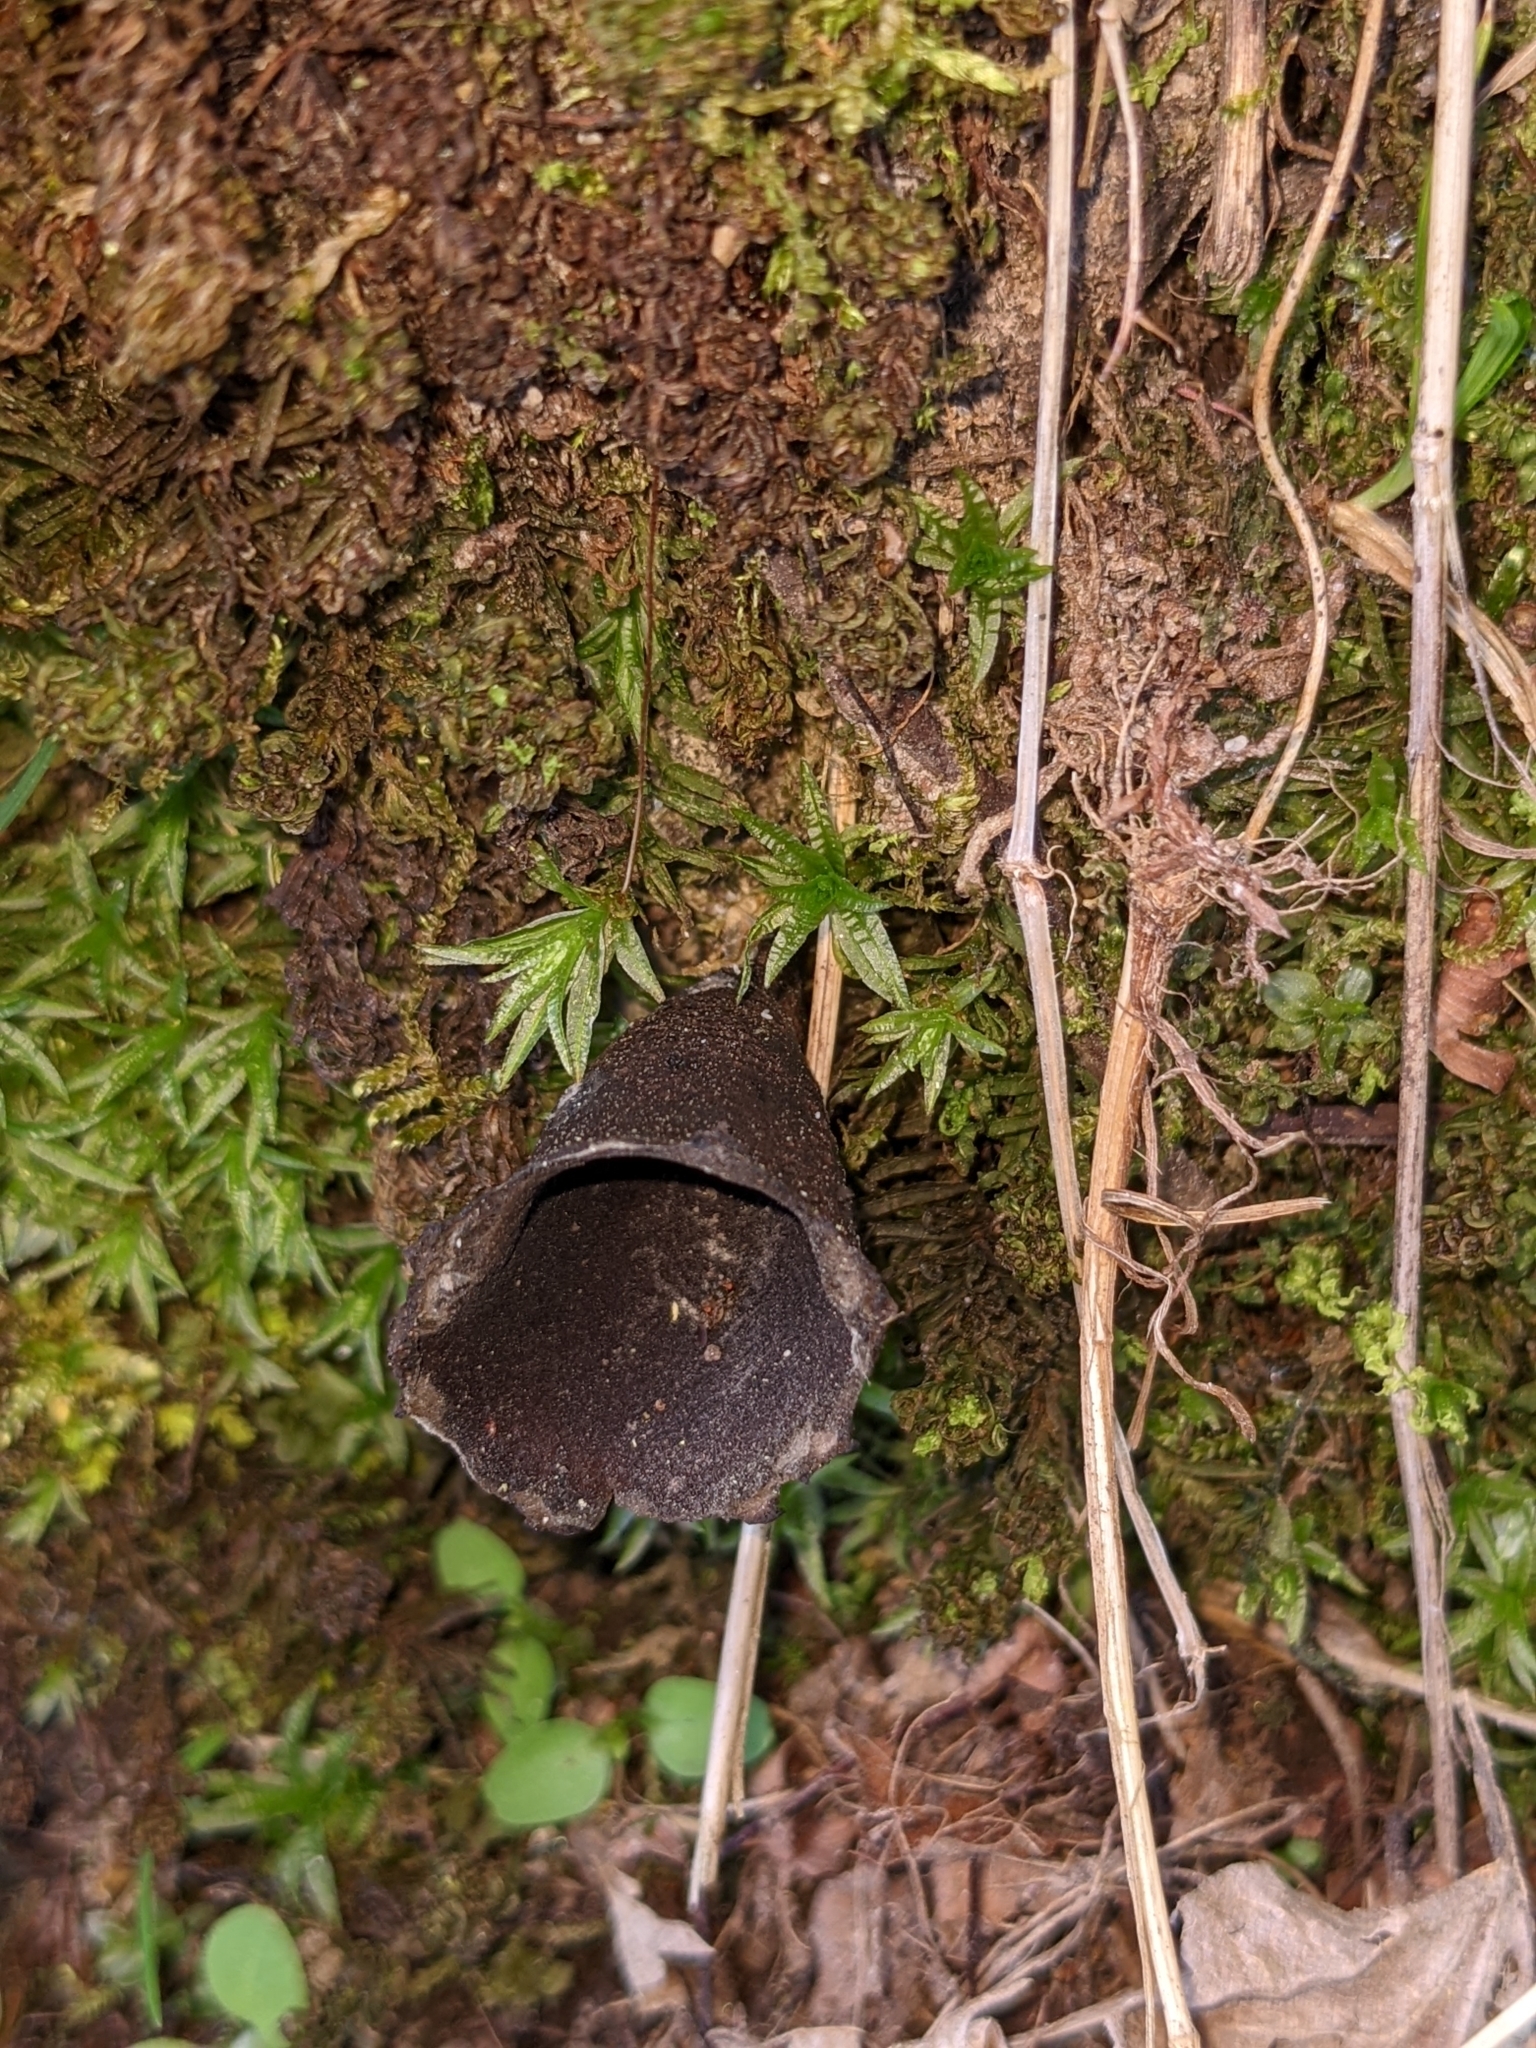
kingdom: Fungi
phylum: Ascomycota
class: Pezizomycetes
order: Pezizales
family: Sarcosomataceae
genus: Urnula
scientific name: Urnula craterium
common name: Devil's urn
